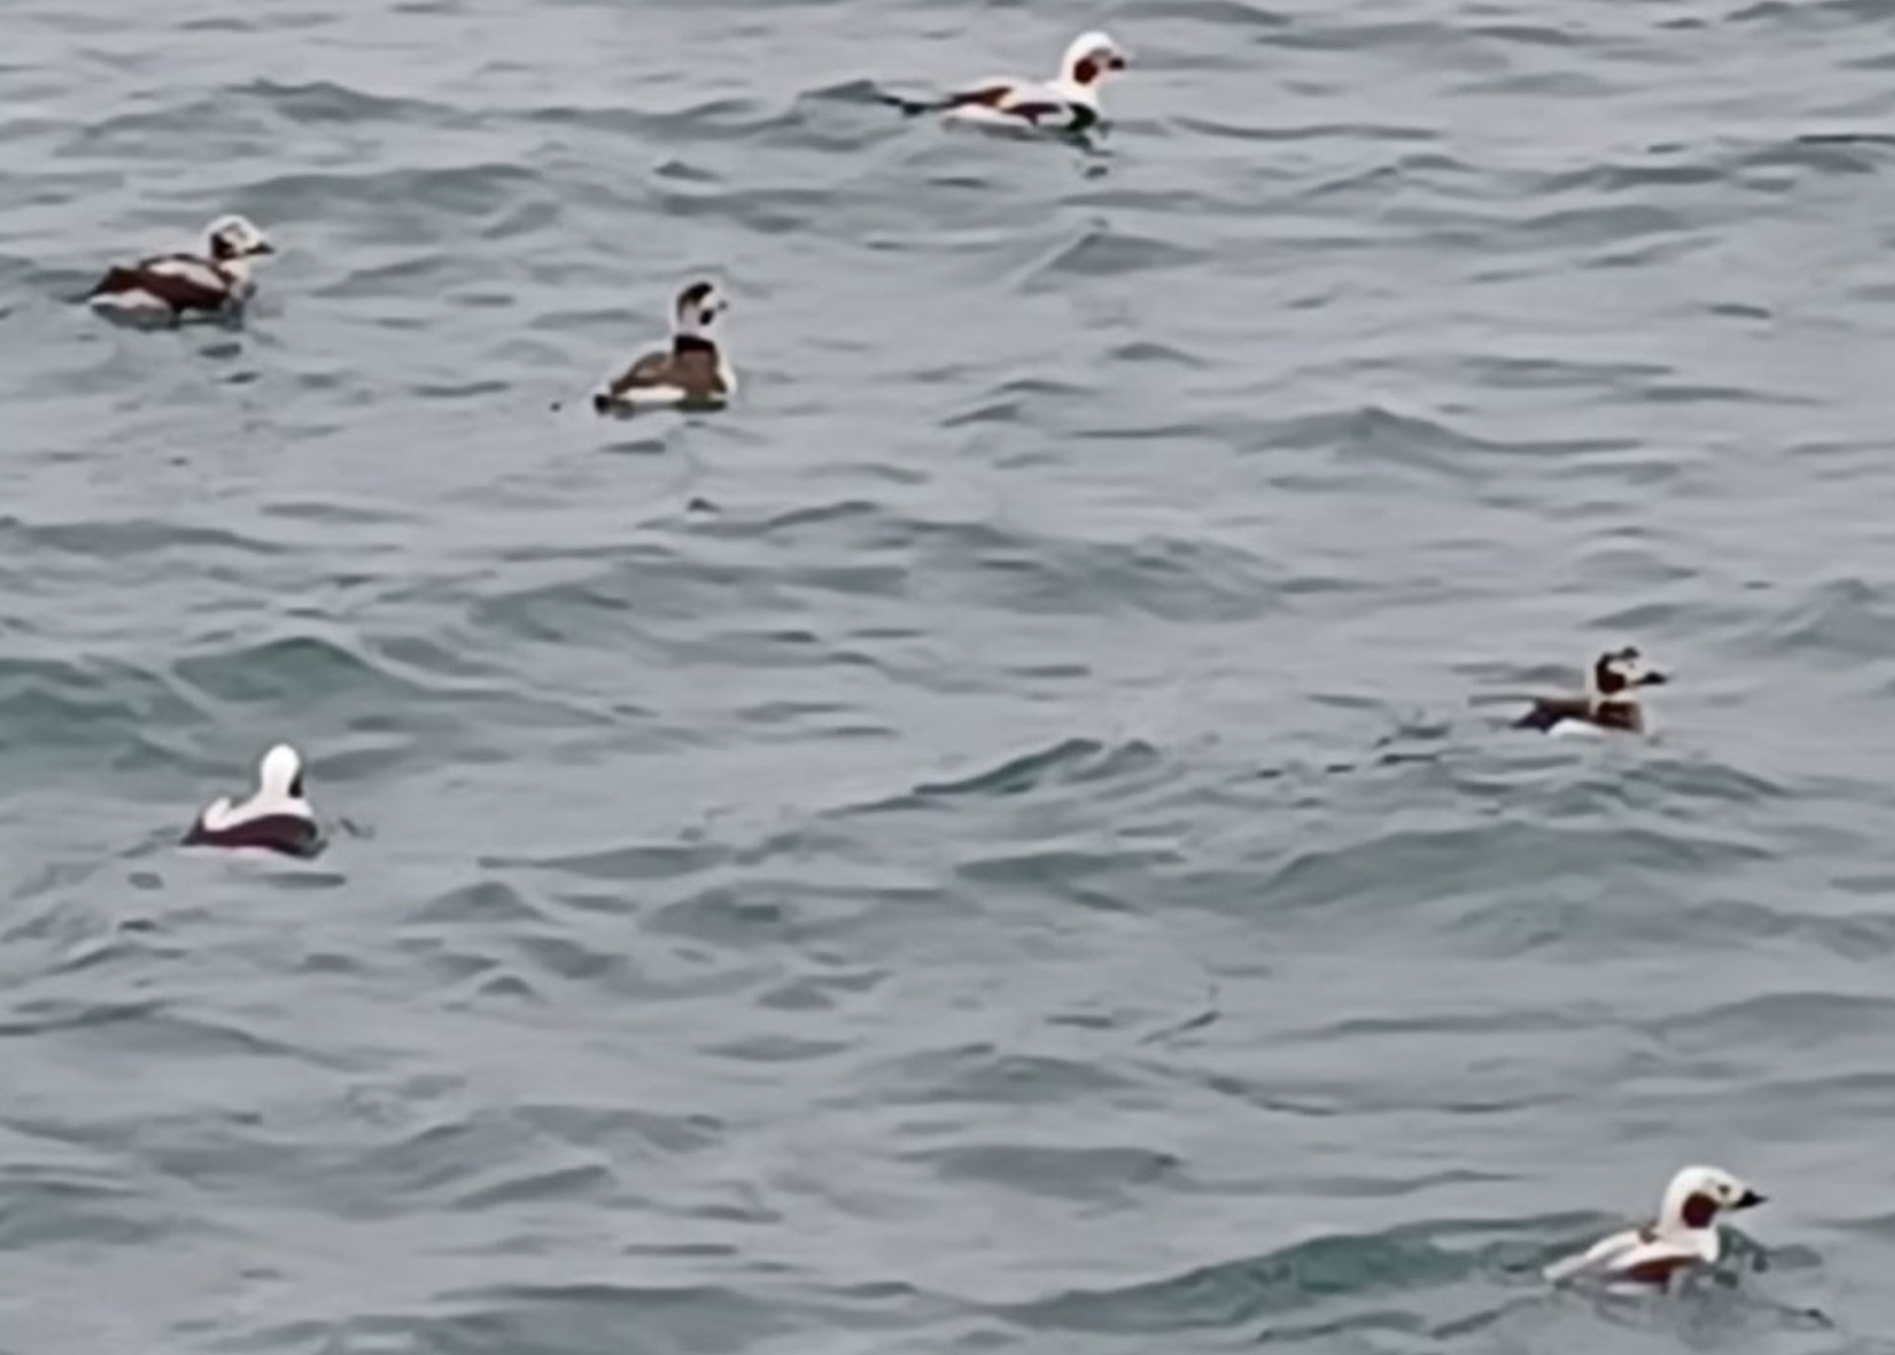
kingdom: Animalia
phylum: Chordata
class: Aves
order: Anseriformes
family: Anatidae
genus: Clangula
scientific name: Clangula hyemalis
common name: Long-tailed duck
